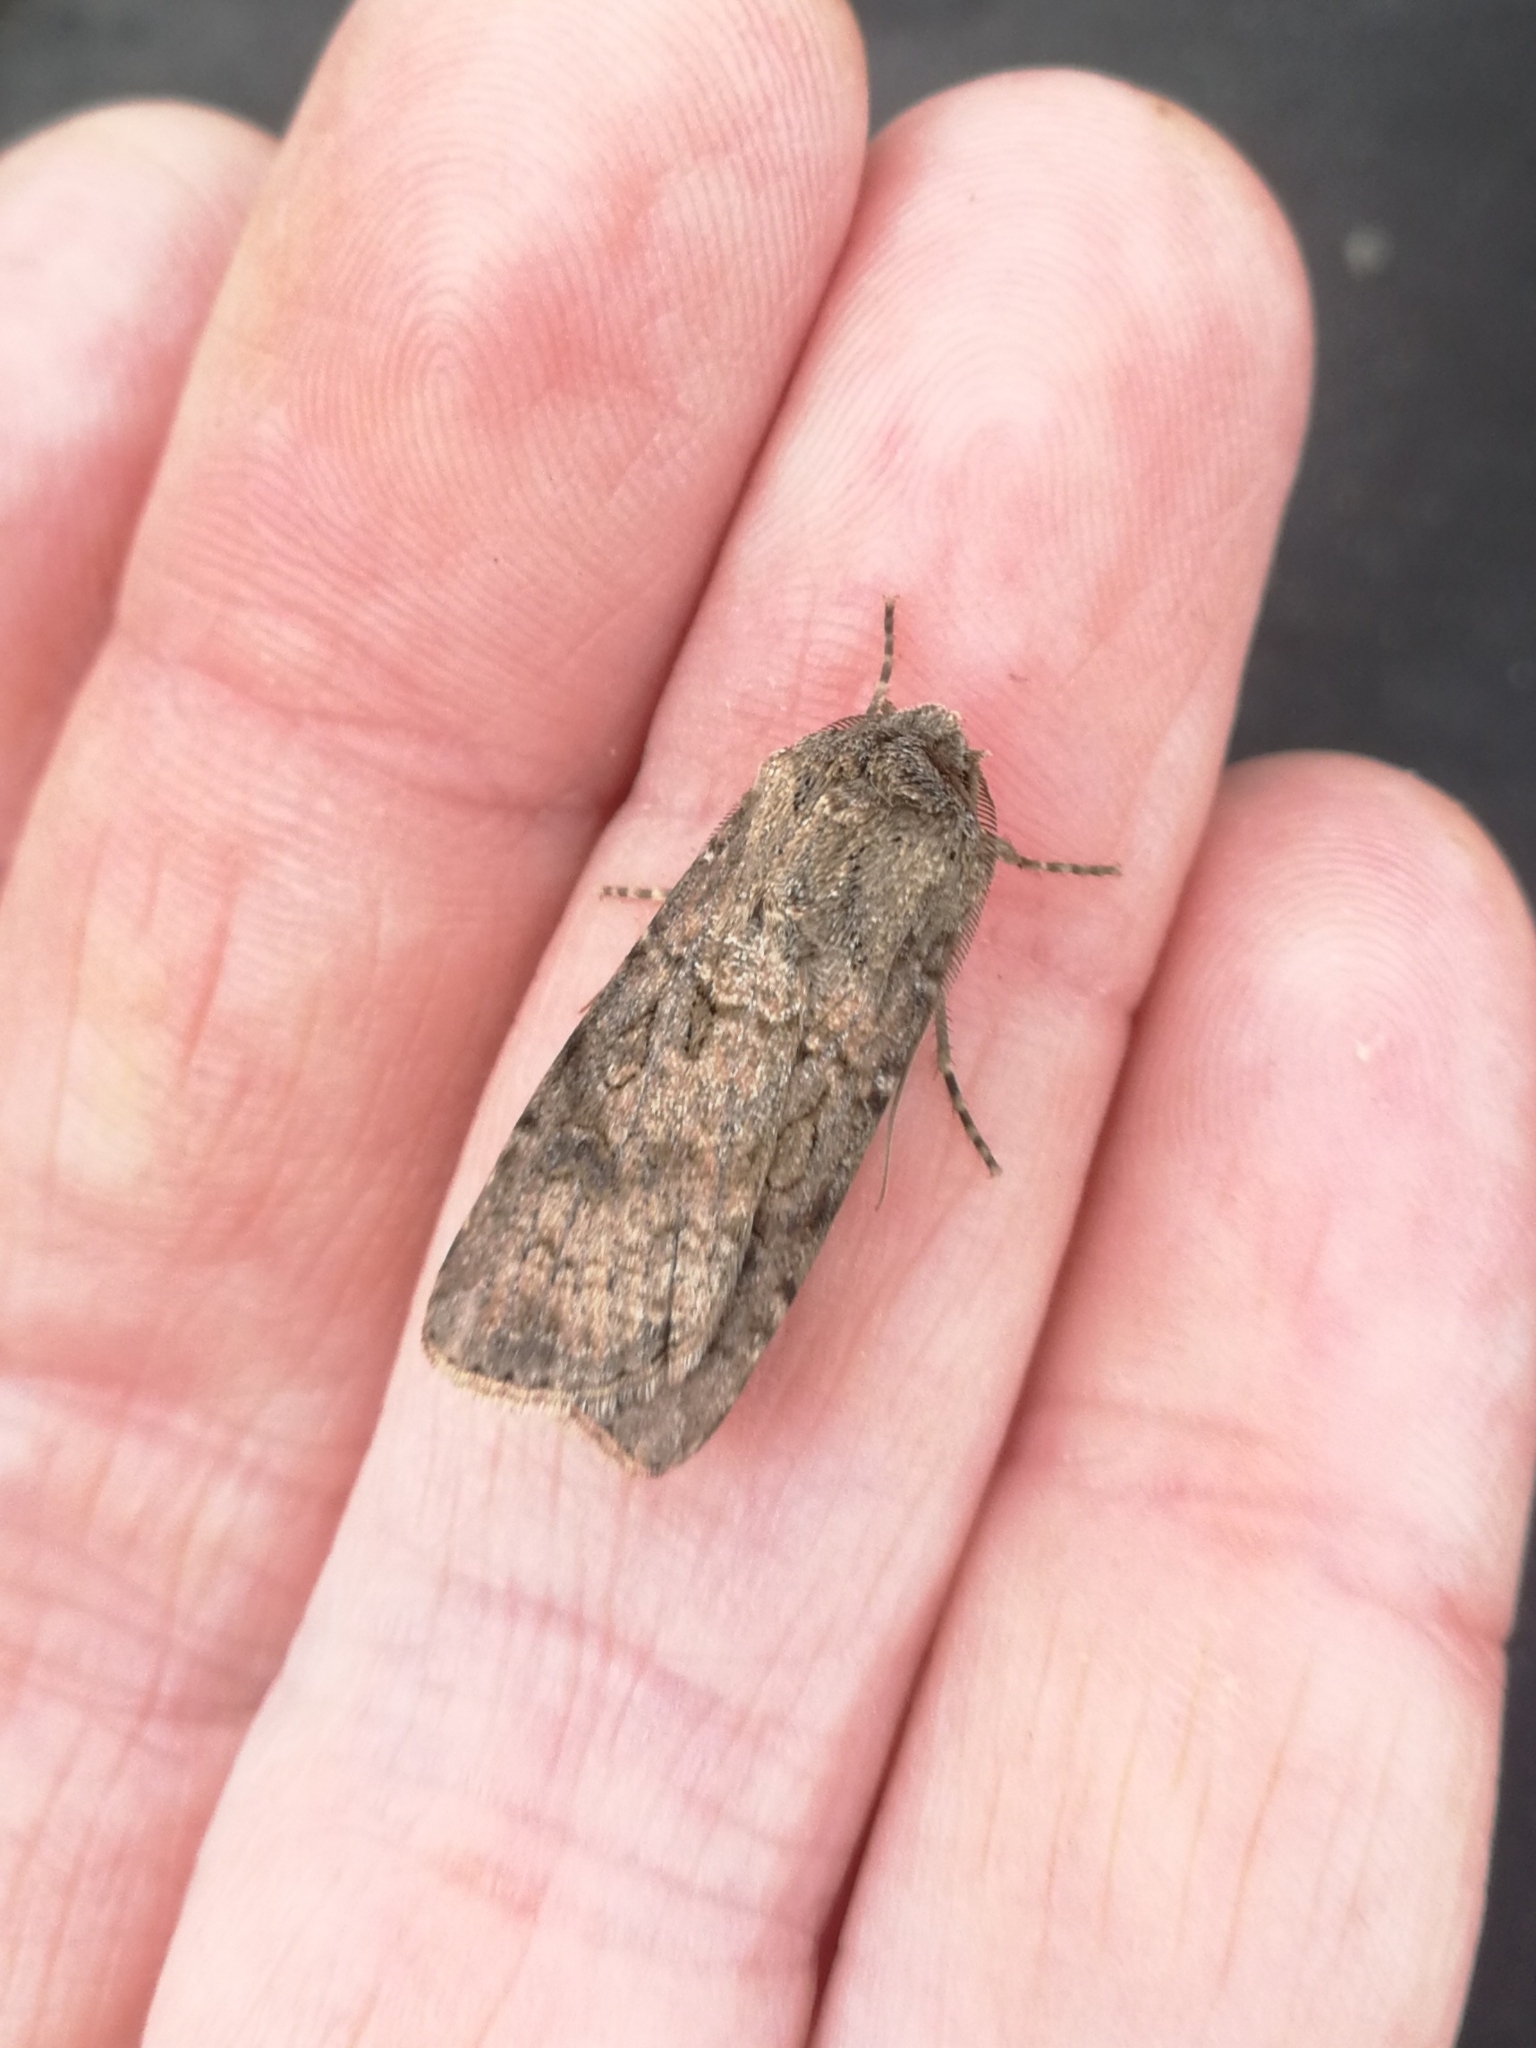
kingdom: Animalia
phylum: Arthropoda
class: Insecta
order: Lepidoptera
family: Noctuidae
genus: Agrotis
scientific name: Agrotis segetum
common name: Turnip moth
